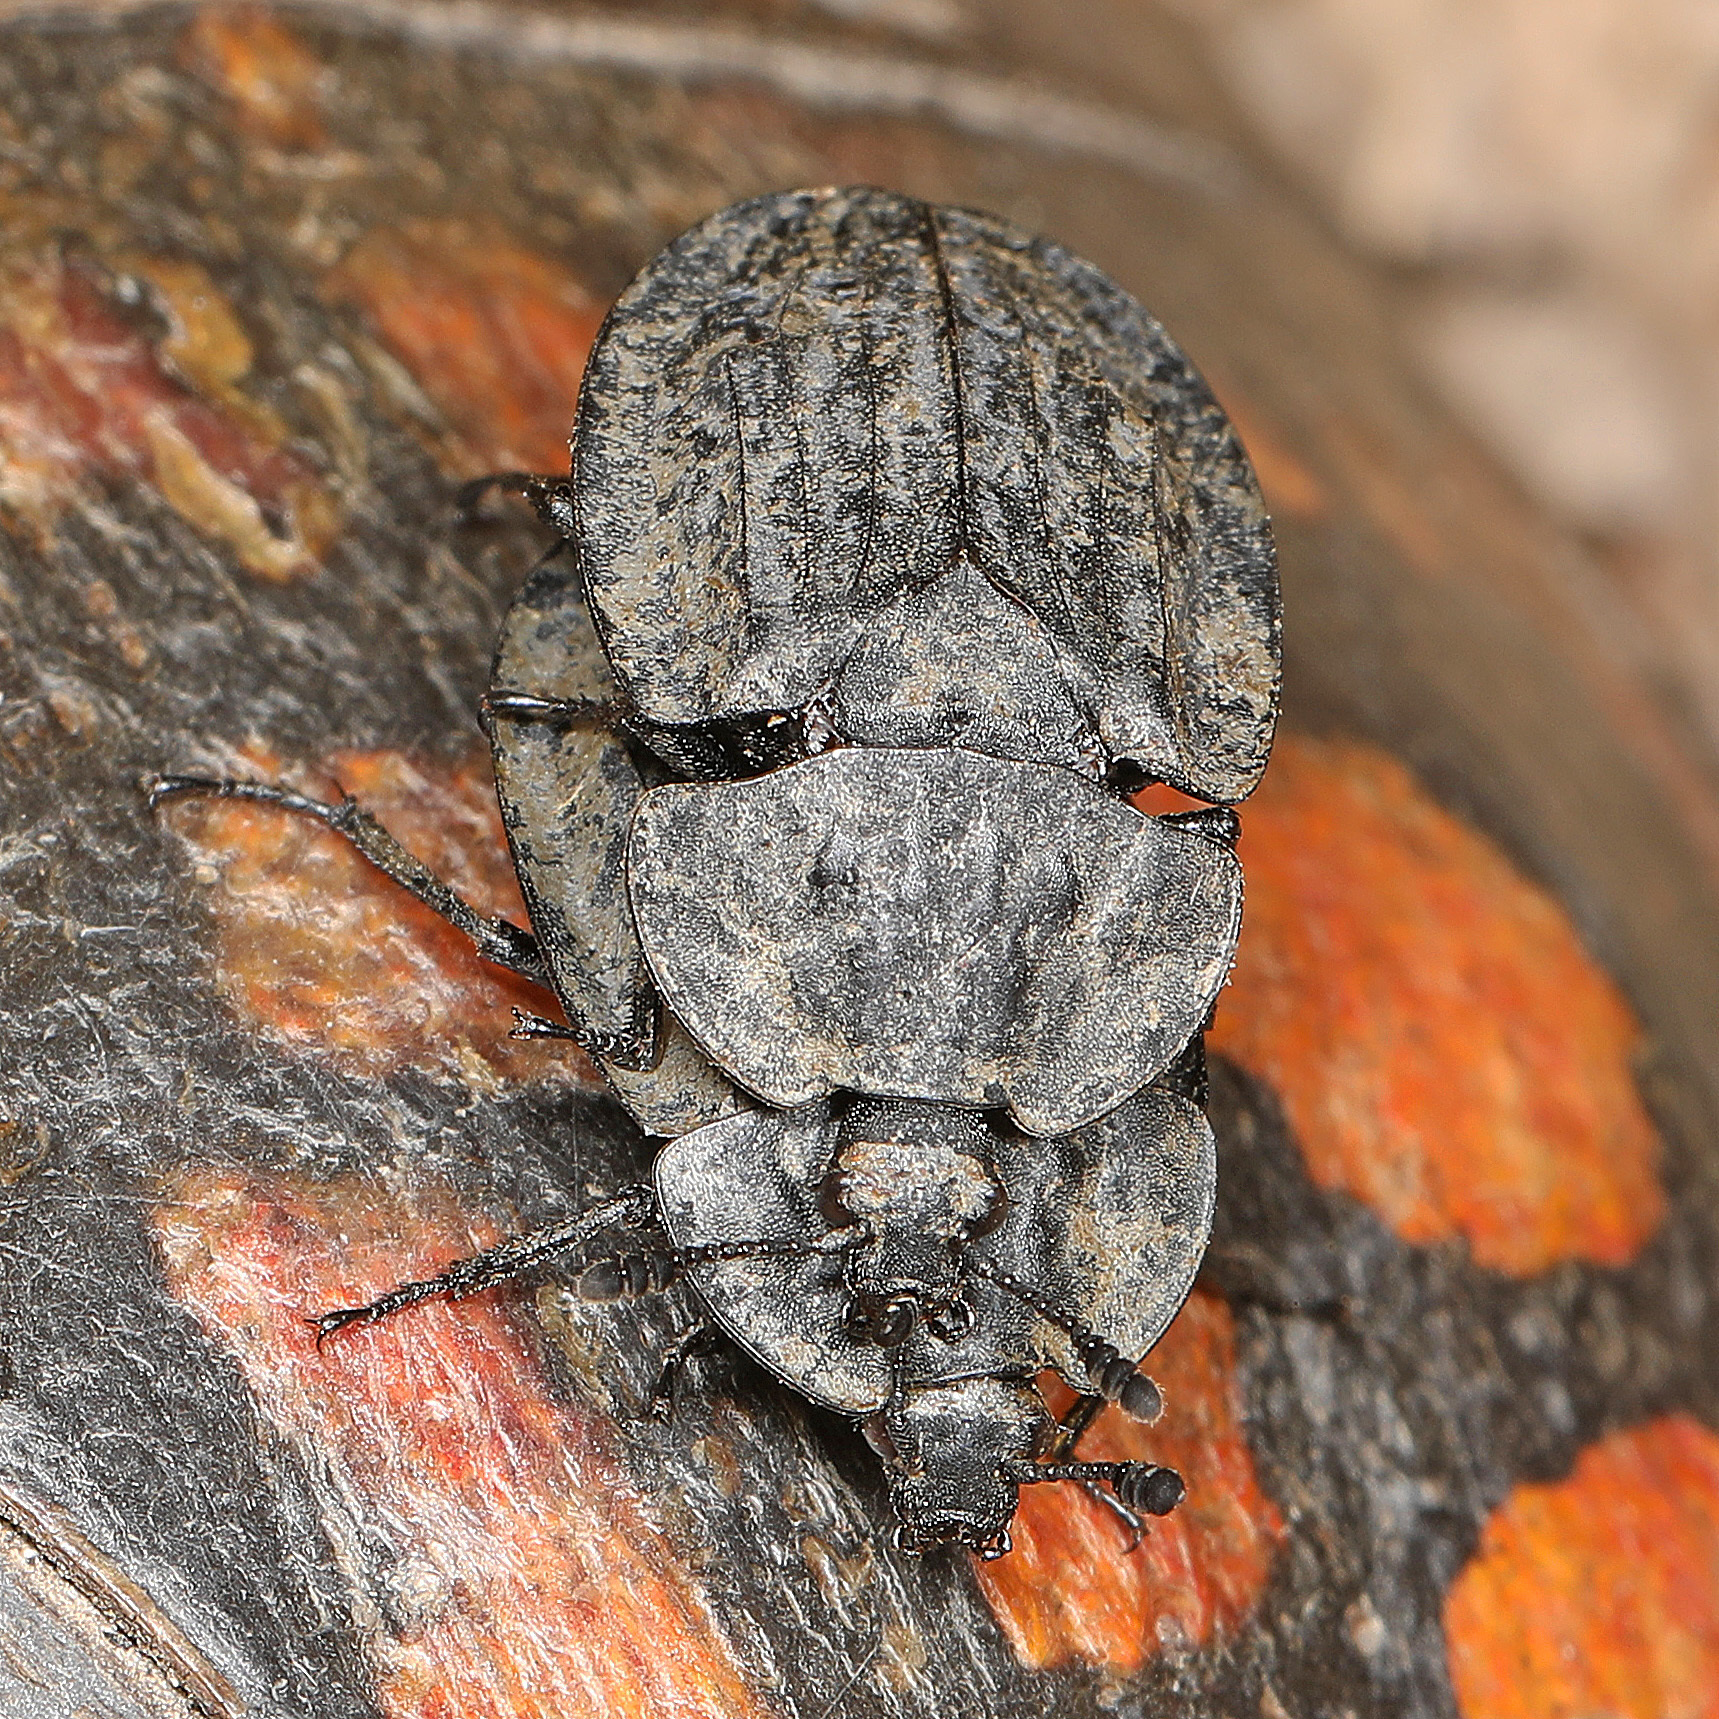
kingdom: Animalia
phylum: Arthropoda
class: Insecta
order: Coleoptera
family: Staphylinidae
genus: Oiceoptoma
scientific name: Oiceoptoma inaequale
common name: Ridged carrion beetle
